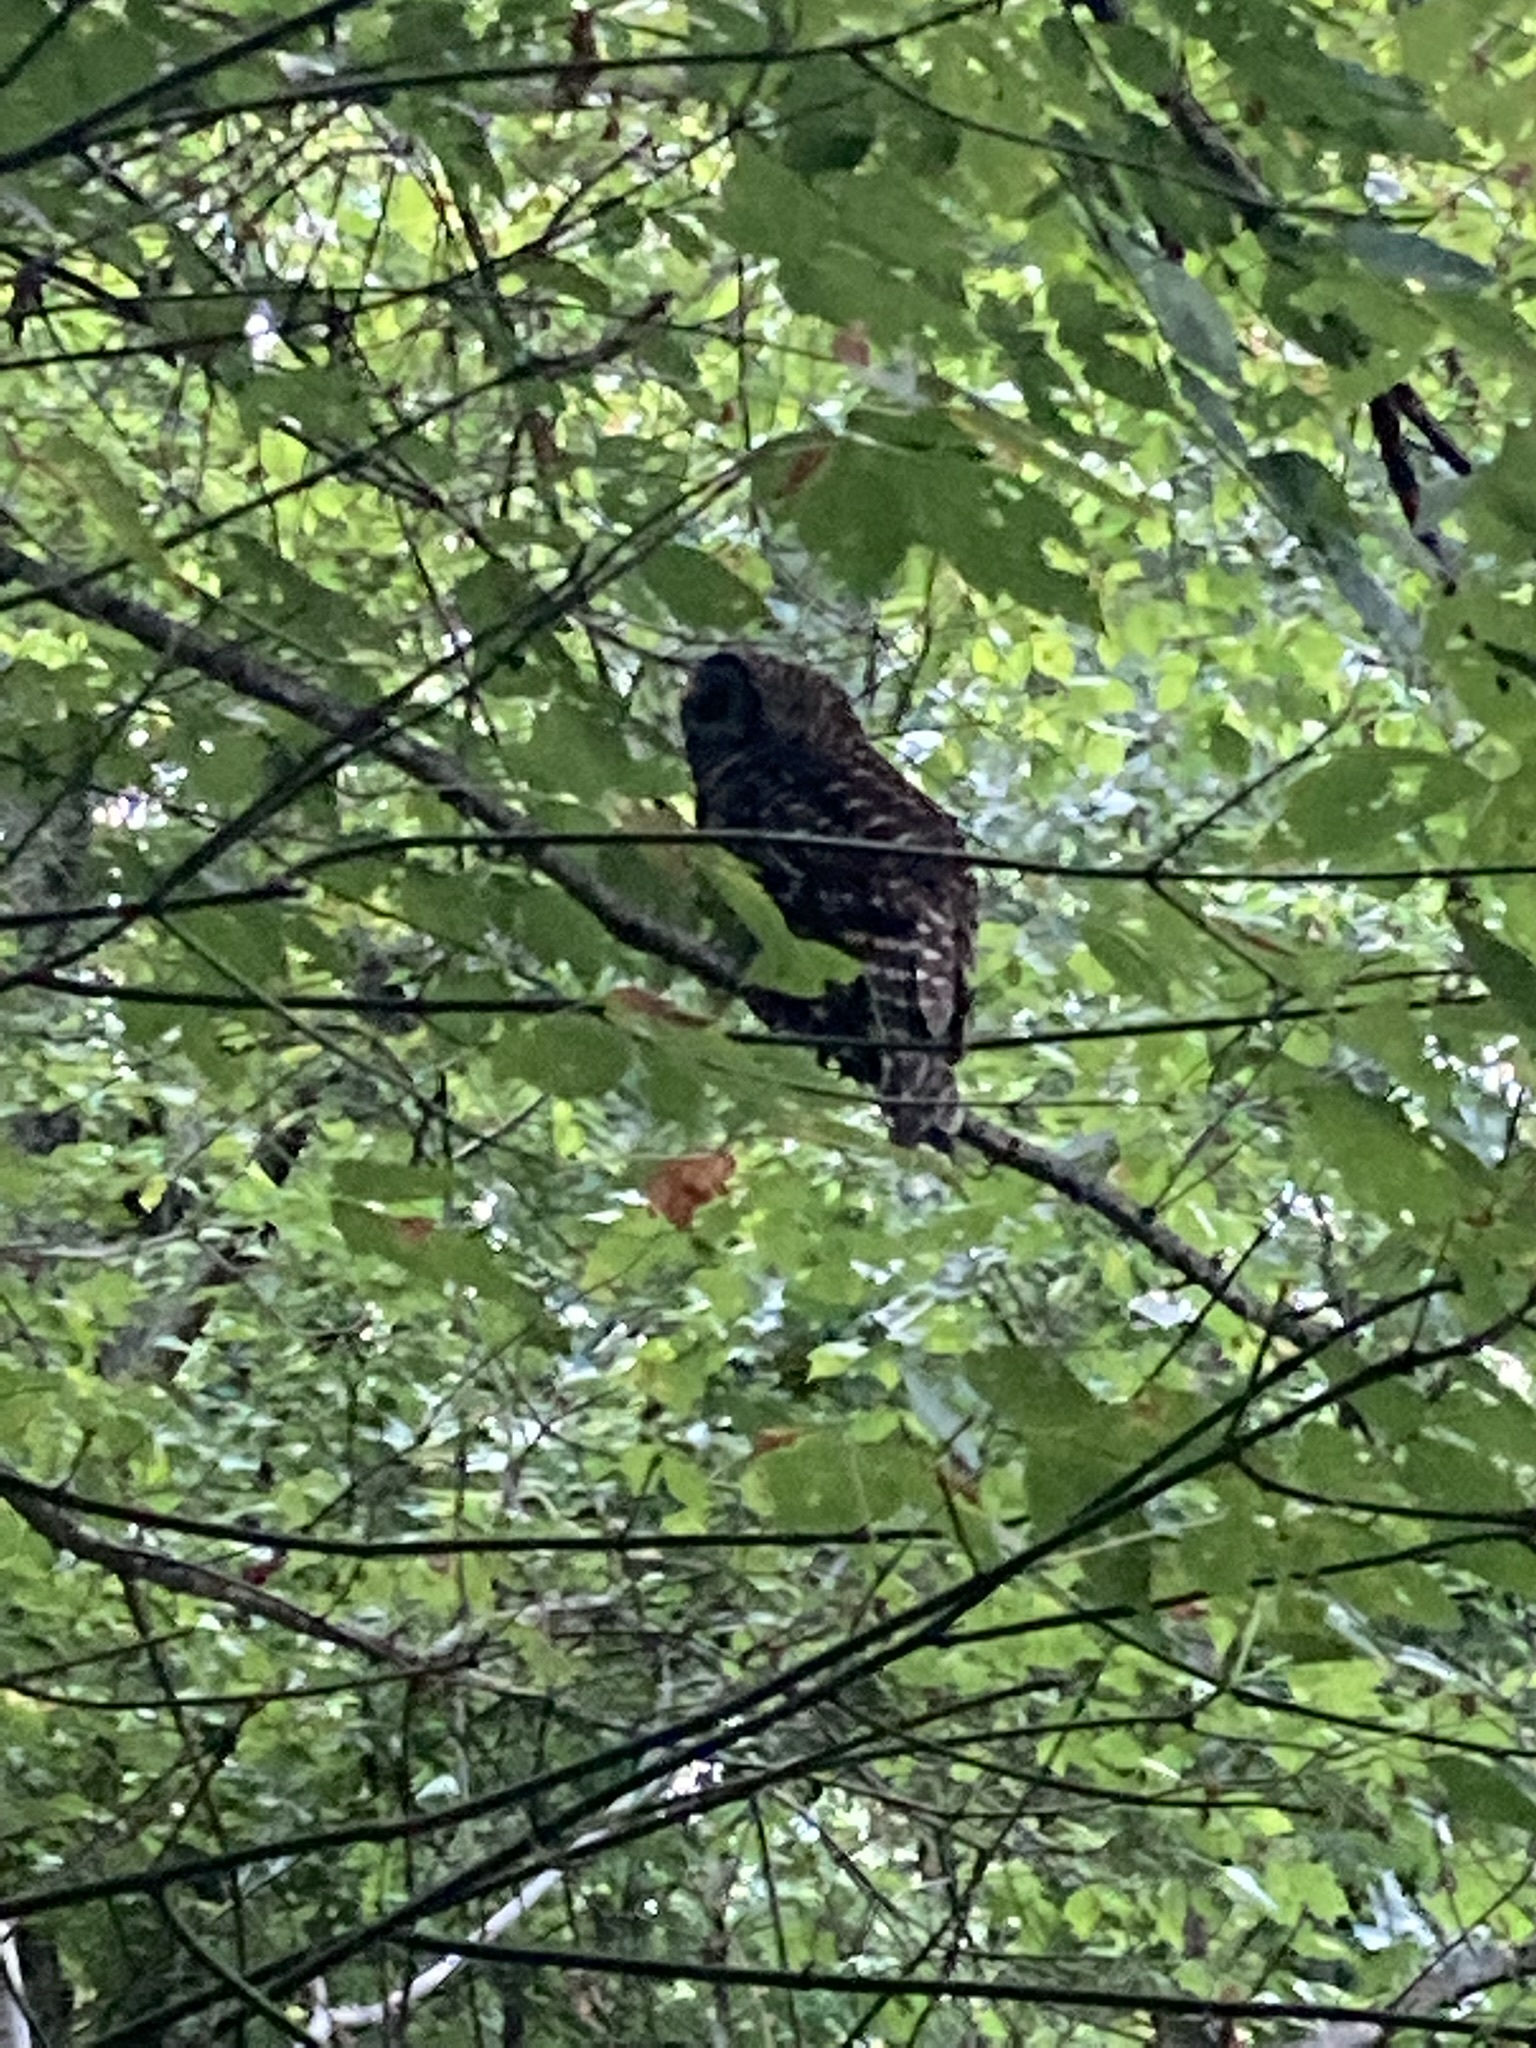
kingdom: Animalia
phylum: Chordata
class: Aves
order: Strigiformes
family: Strigidae
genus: Strix
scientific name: Strix varia
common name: Barred owl
